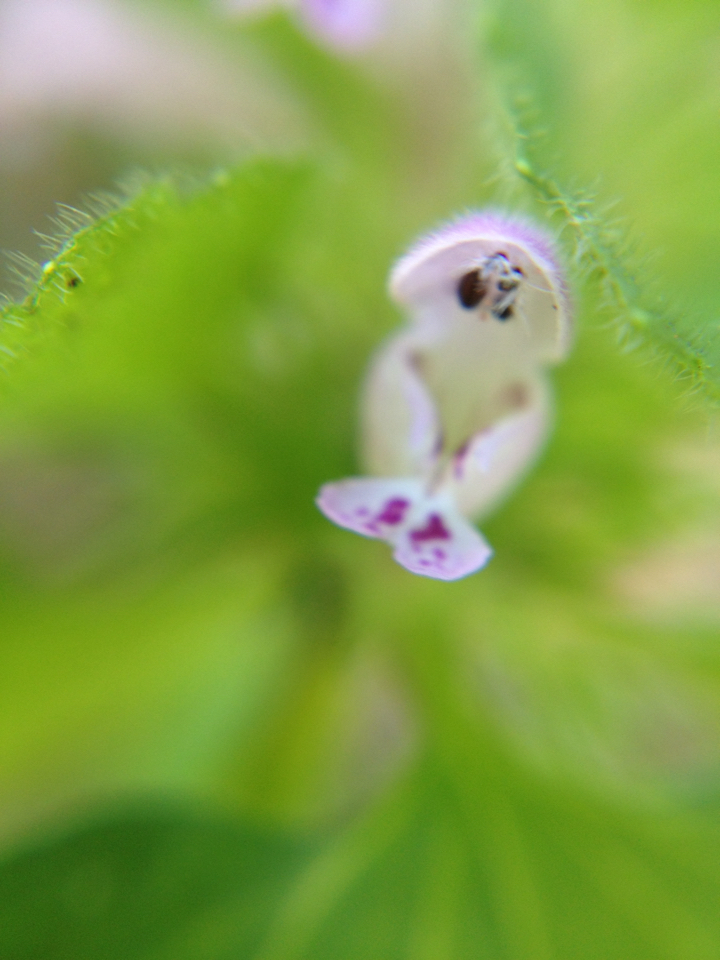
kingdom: Plantae
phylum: Tracheophyta
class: Magnoliopsida
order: Lamiales
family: Lamiaceae
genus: Lamium
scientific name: Lamium purpureum
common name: Red dead-nettle
